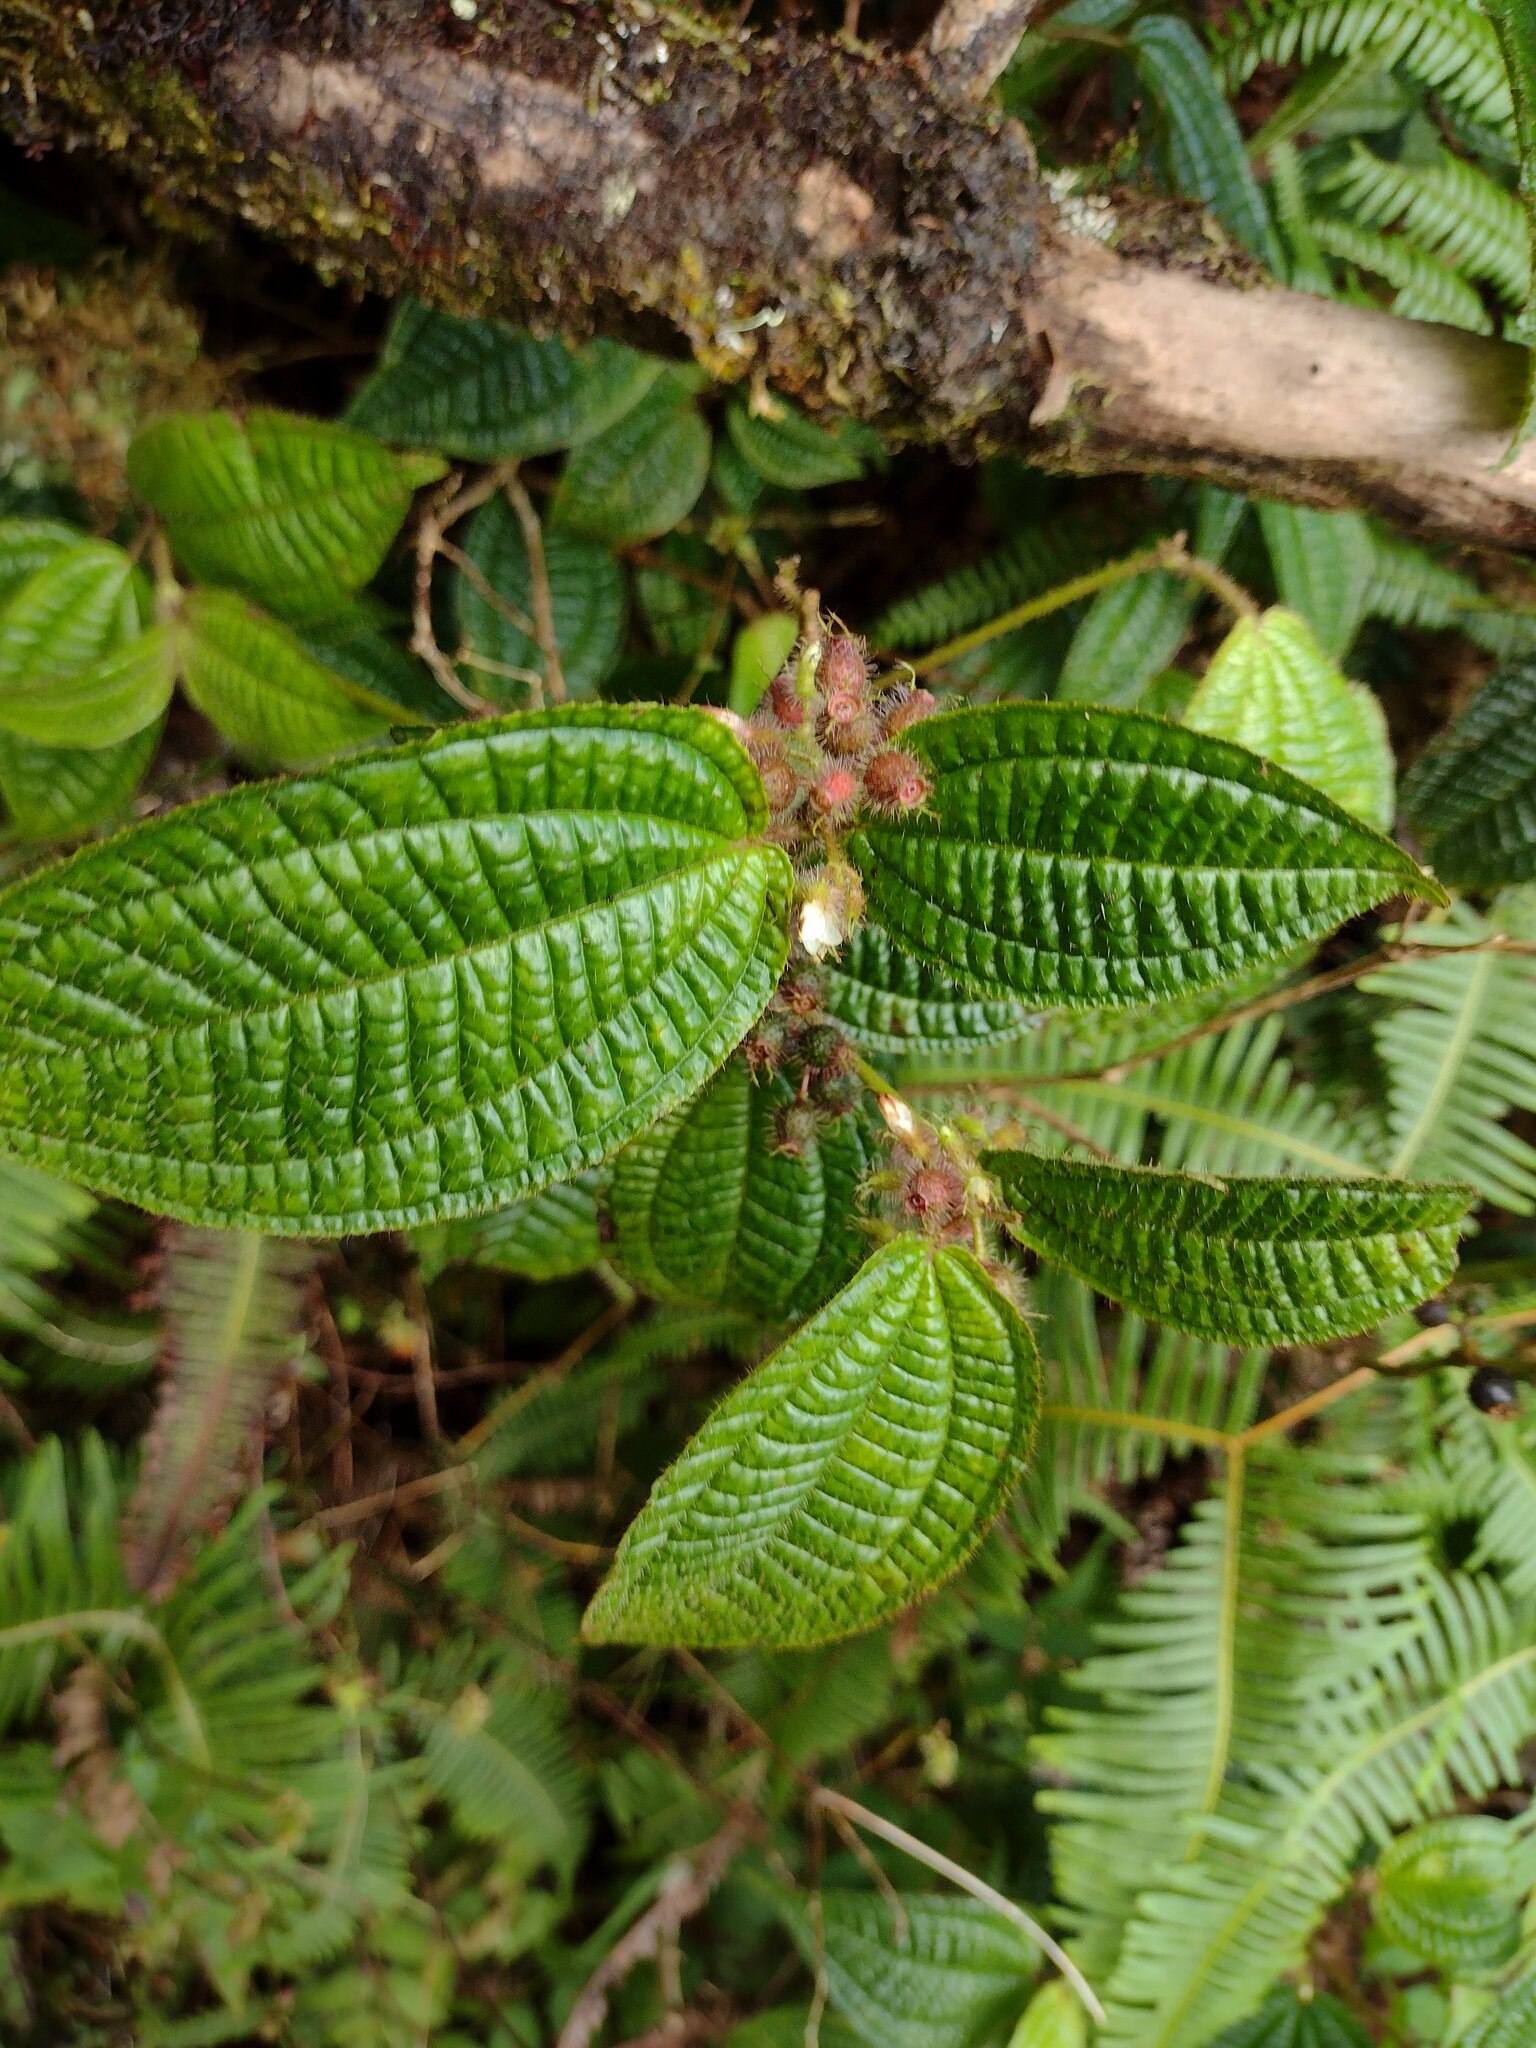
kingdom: Plantae
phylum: Tracheophyta
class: Magnoliopsida
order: Myrtales
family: Melastomataceae
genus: Miconia
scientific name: Miconia crenata
